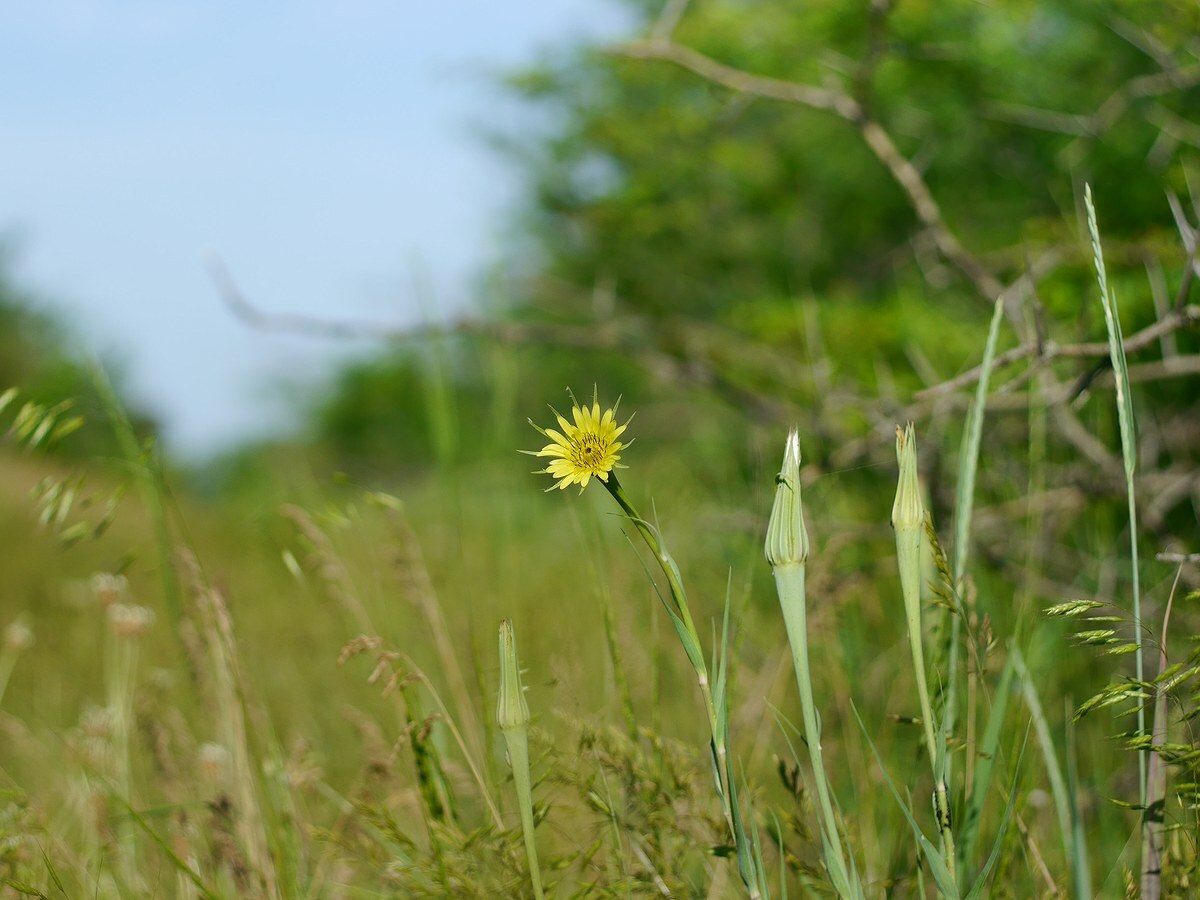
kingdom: Plantae
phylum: Tracheophyta
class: Magnoliopsida
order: Asterales
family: Asteraceae
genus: Tragopogon
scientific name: Tragopogon dubius
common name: Yellow salsify
